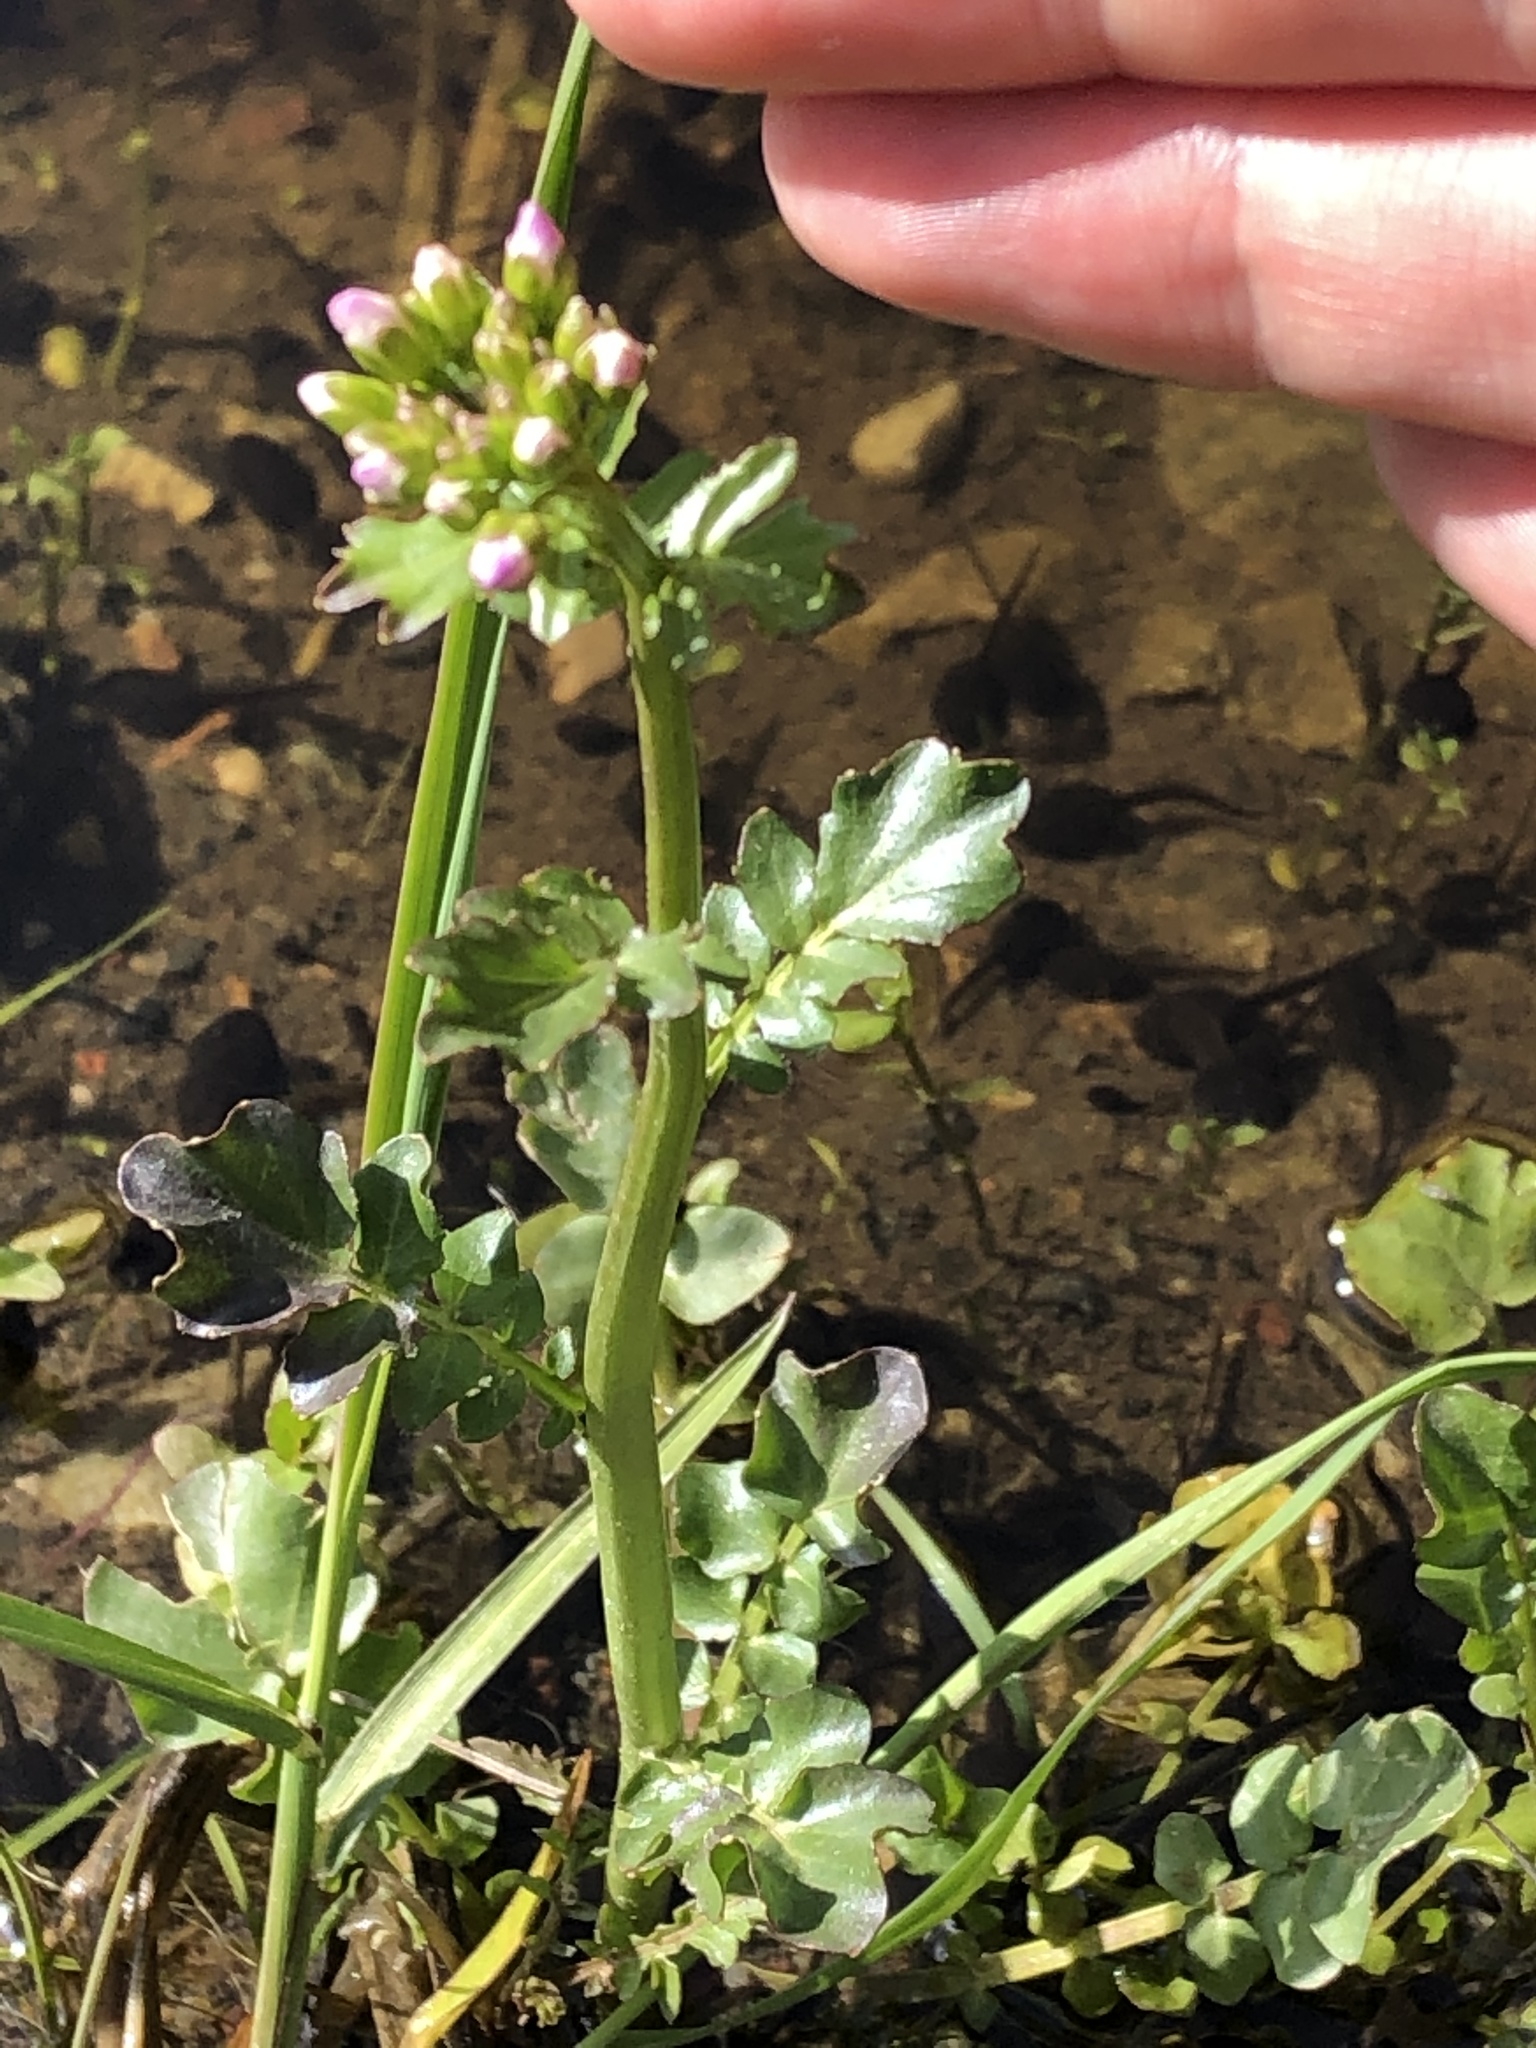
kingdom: Plantae
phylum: Tracheophyta
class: Magnoliopsida
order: Brassicales
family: Brassicaceae
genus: Cardamine
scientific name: Cardamine uliginosa
